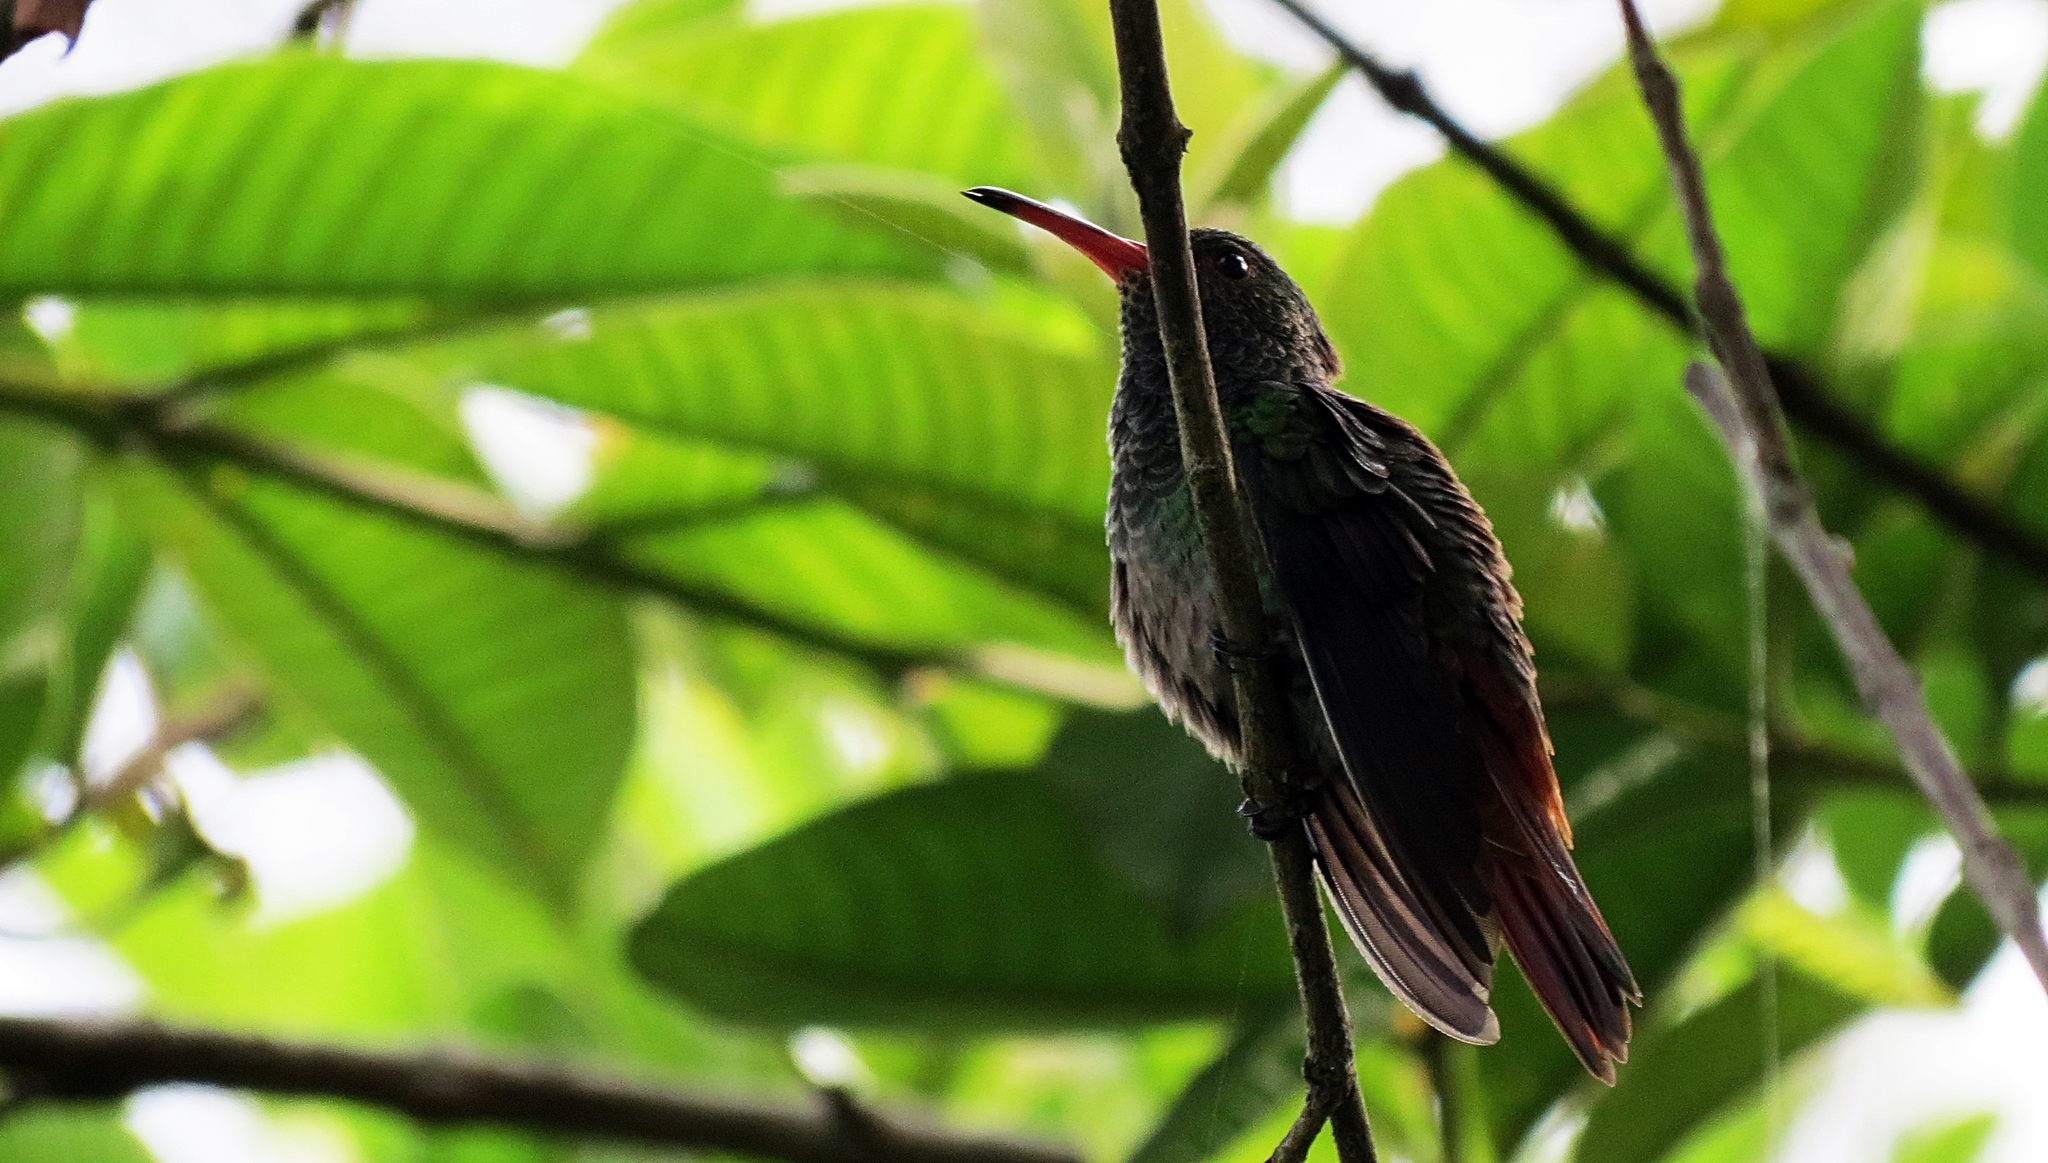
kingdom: Animalia
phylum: Chordata
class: Aves
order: Apodiformes
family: Trochilidae
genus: Amazilia
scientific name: Amazilia tzacatl
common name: Rufous-tailed hummingbird
